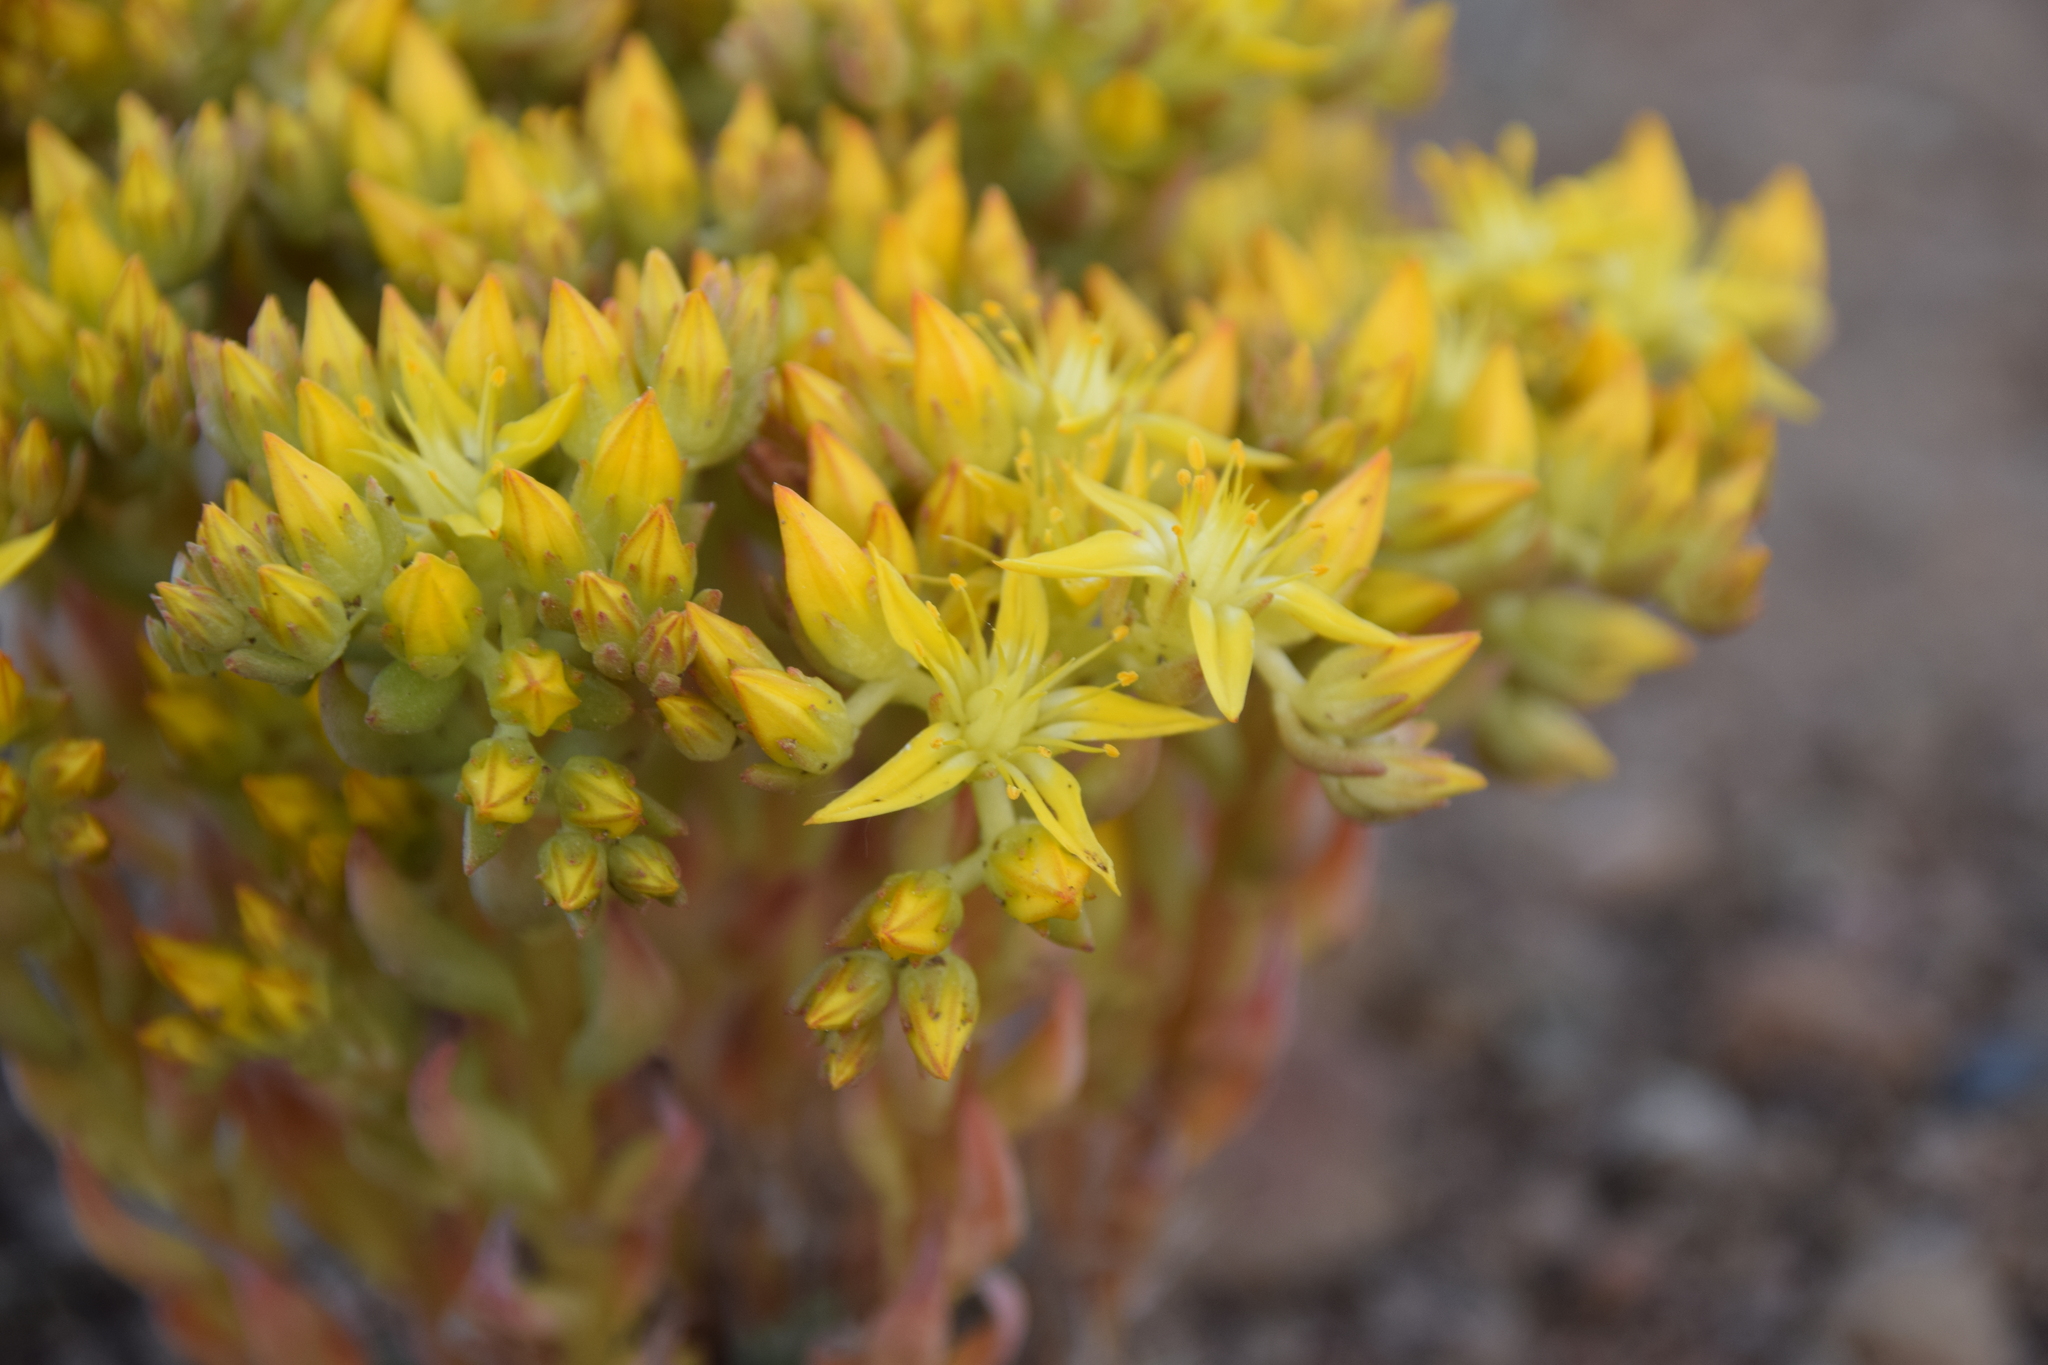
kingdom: Plantae
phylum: Tracheophyta
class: Magnoliopsida
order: Saxifragales
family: Crassulaceae
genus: Sedum
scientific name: Sedum lanceolatum
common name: Common stonecrop
